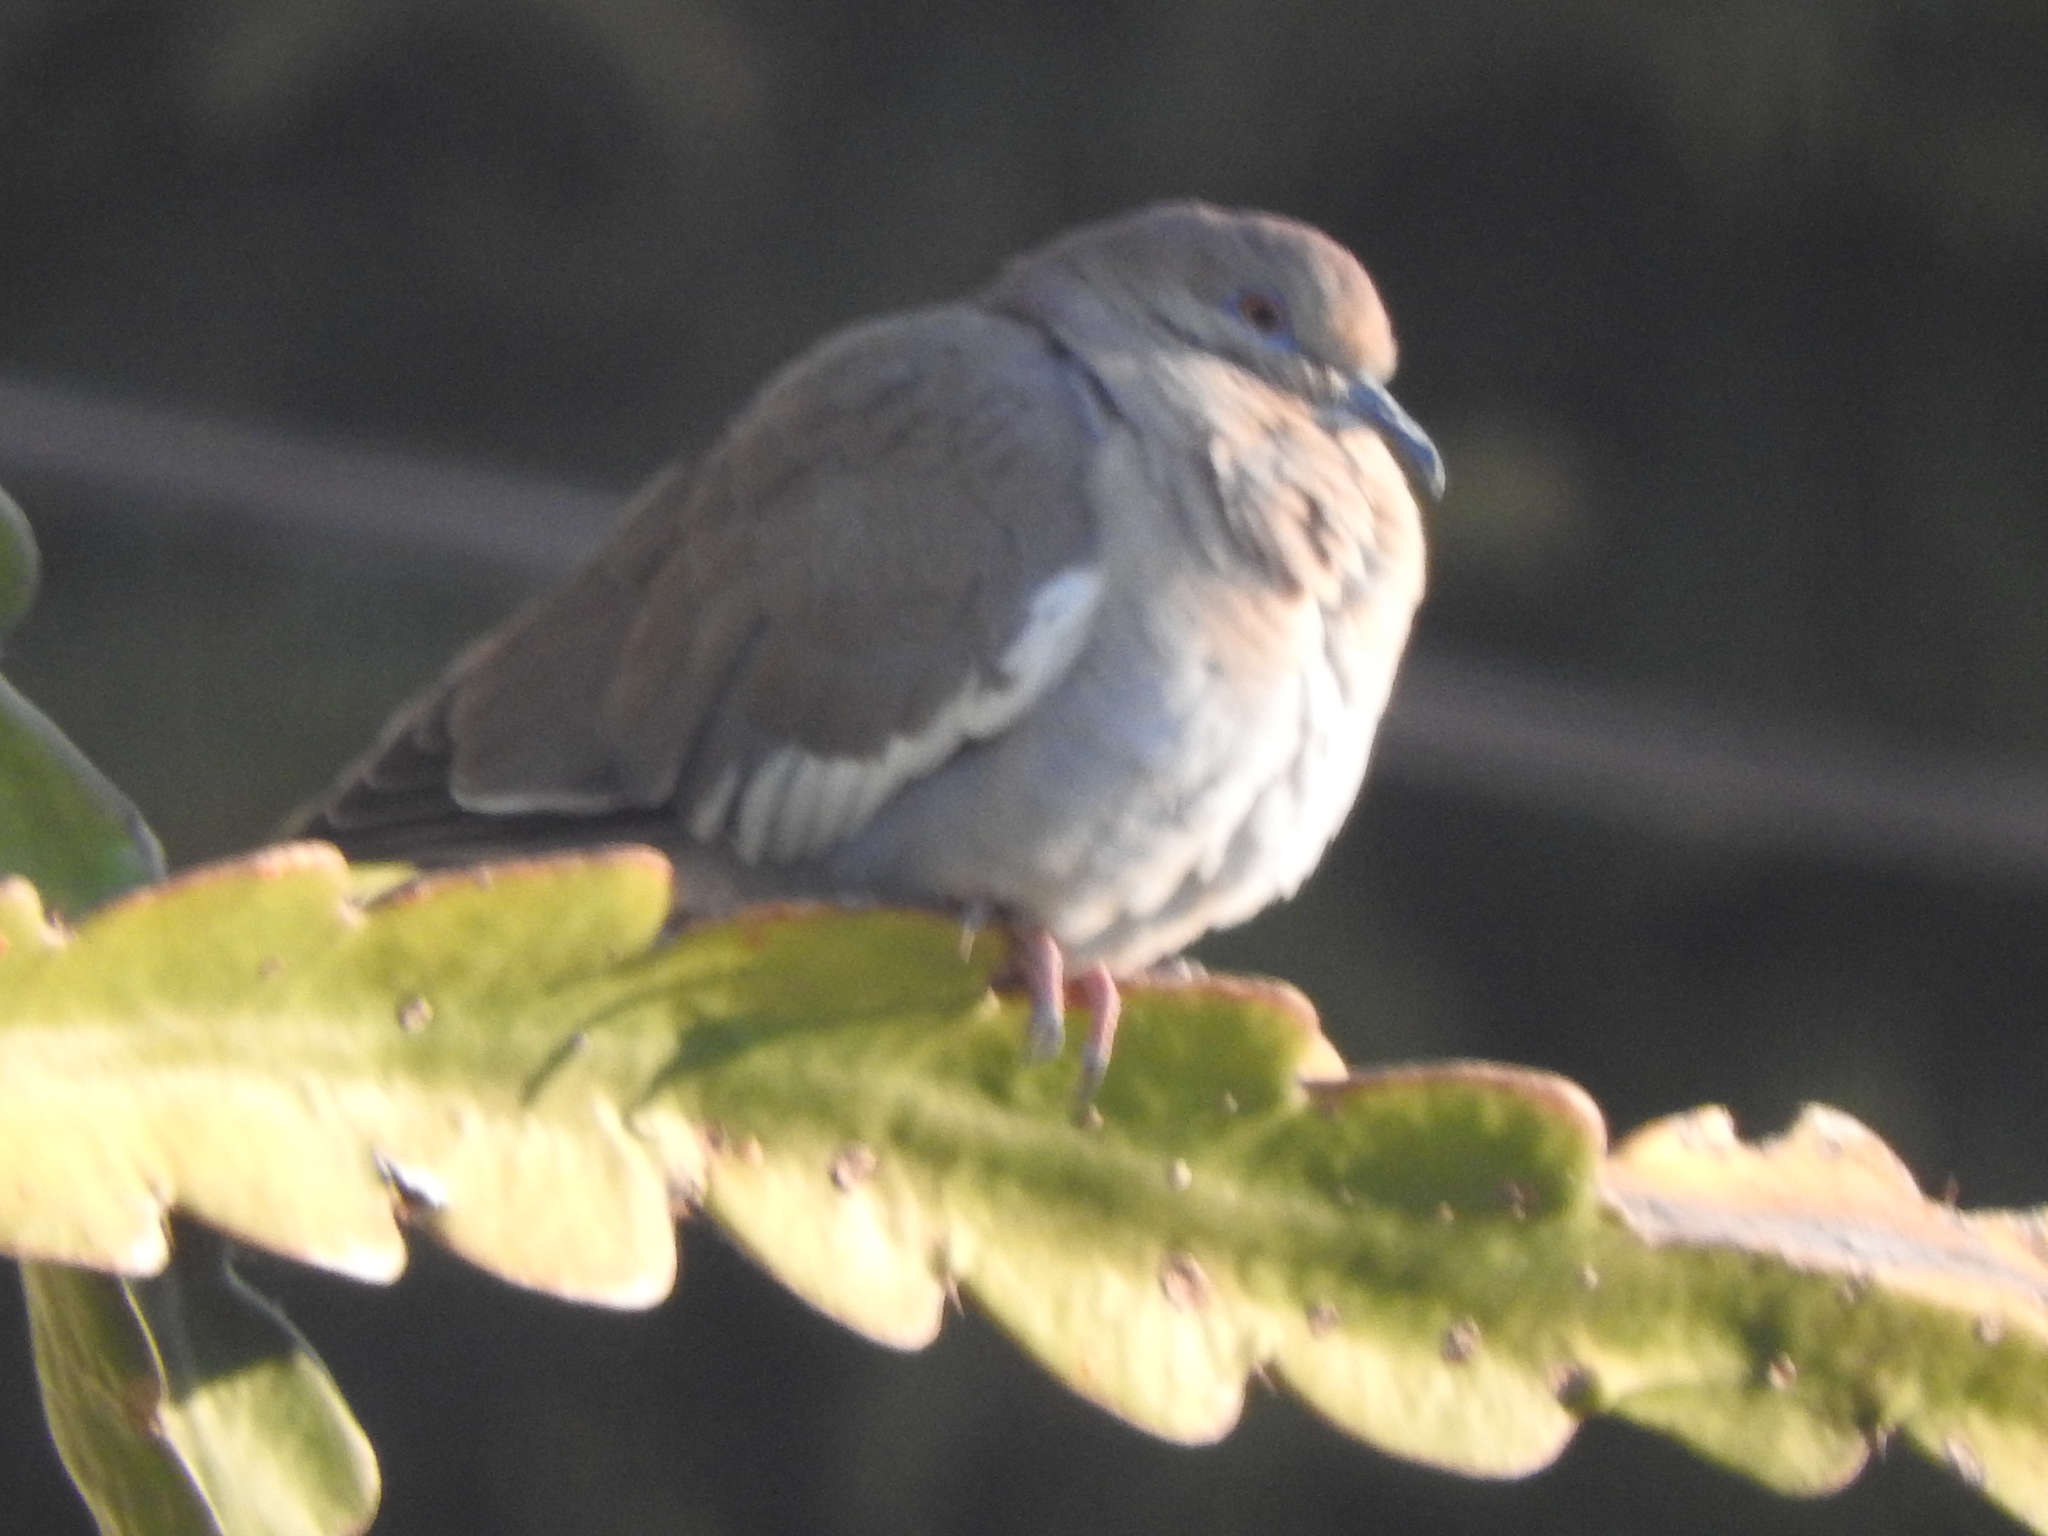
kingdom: Animalia
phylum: Chordata
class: Aves
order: Columbiformes
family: Columbidae
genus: Zenaida
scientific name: Zenaida asiatica
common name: White-winged dove
